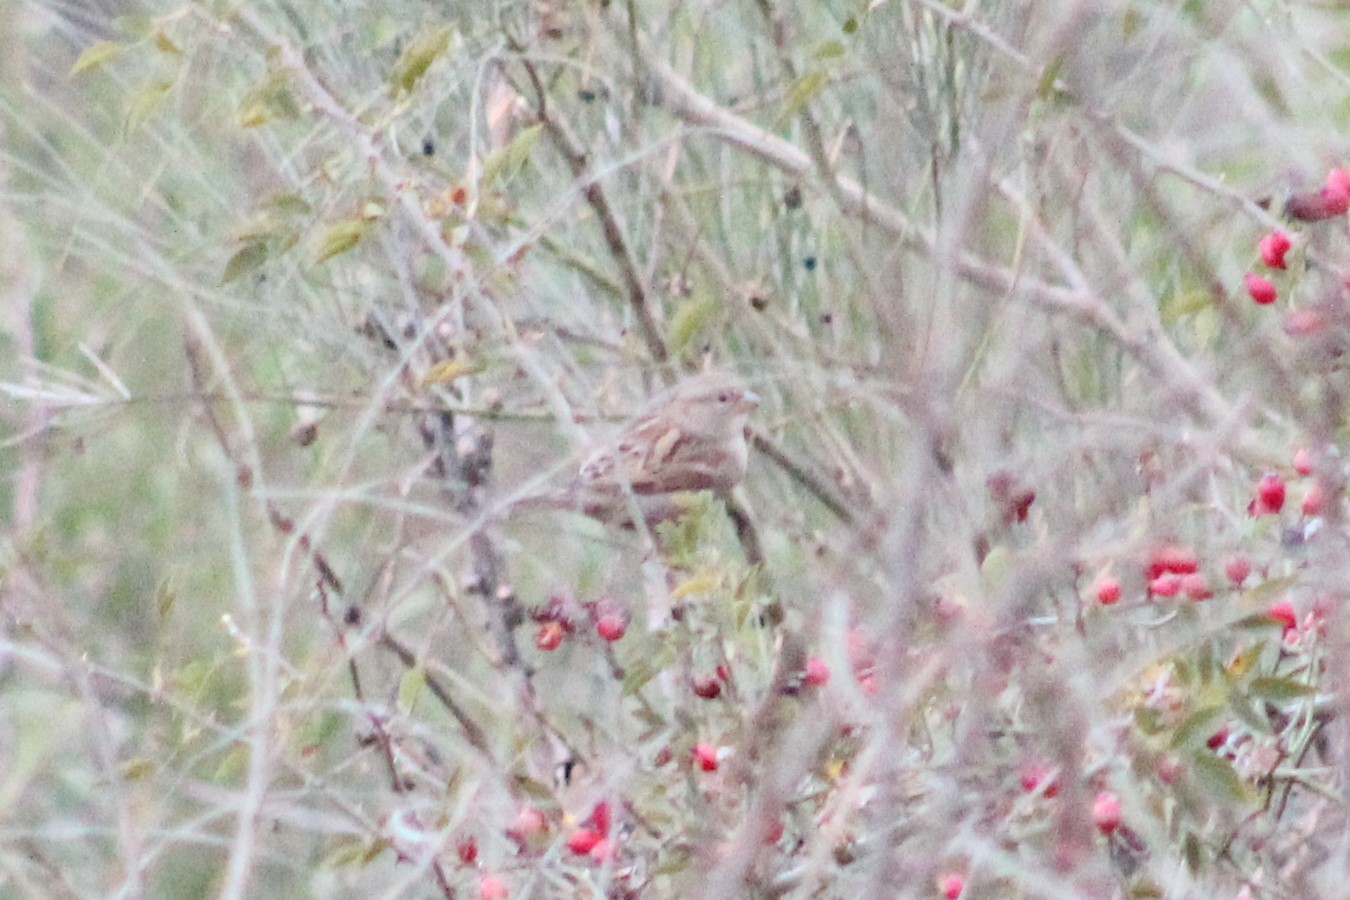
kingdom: Animalia
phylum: Chordata
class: Aves
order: Passeriformes
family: Passeridae
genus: Passer
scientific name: Passer domesticus
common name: House sparrow
